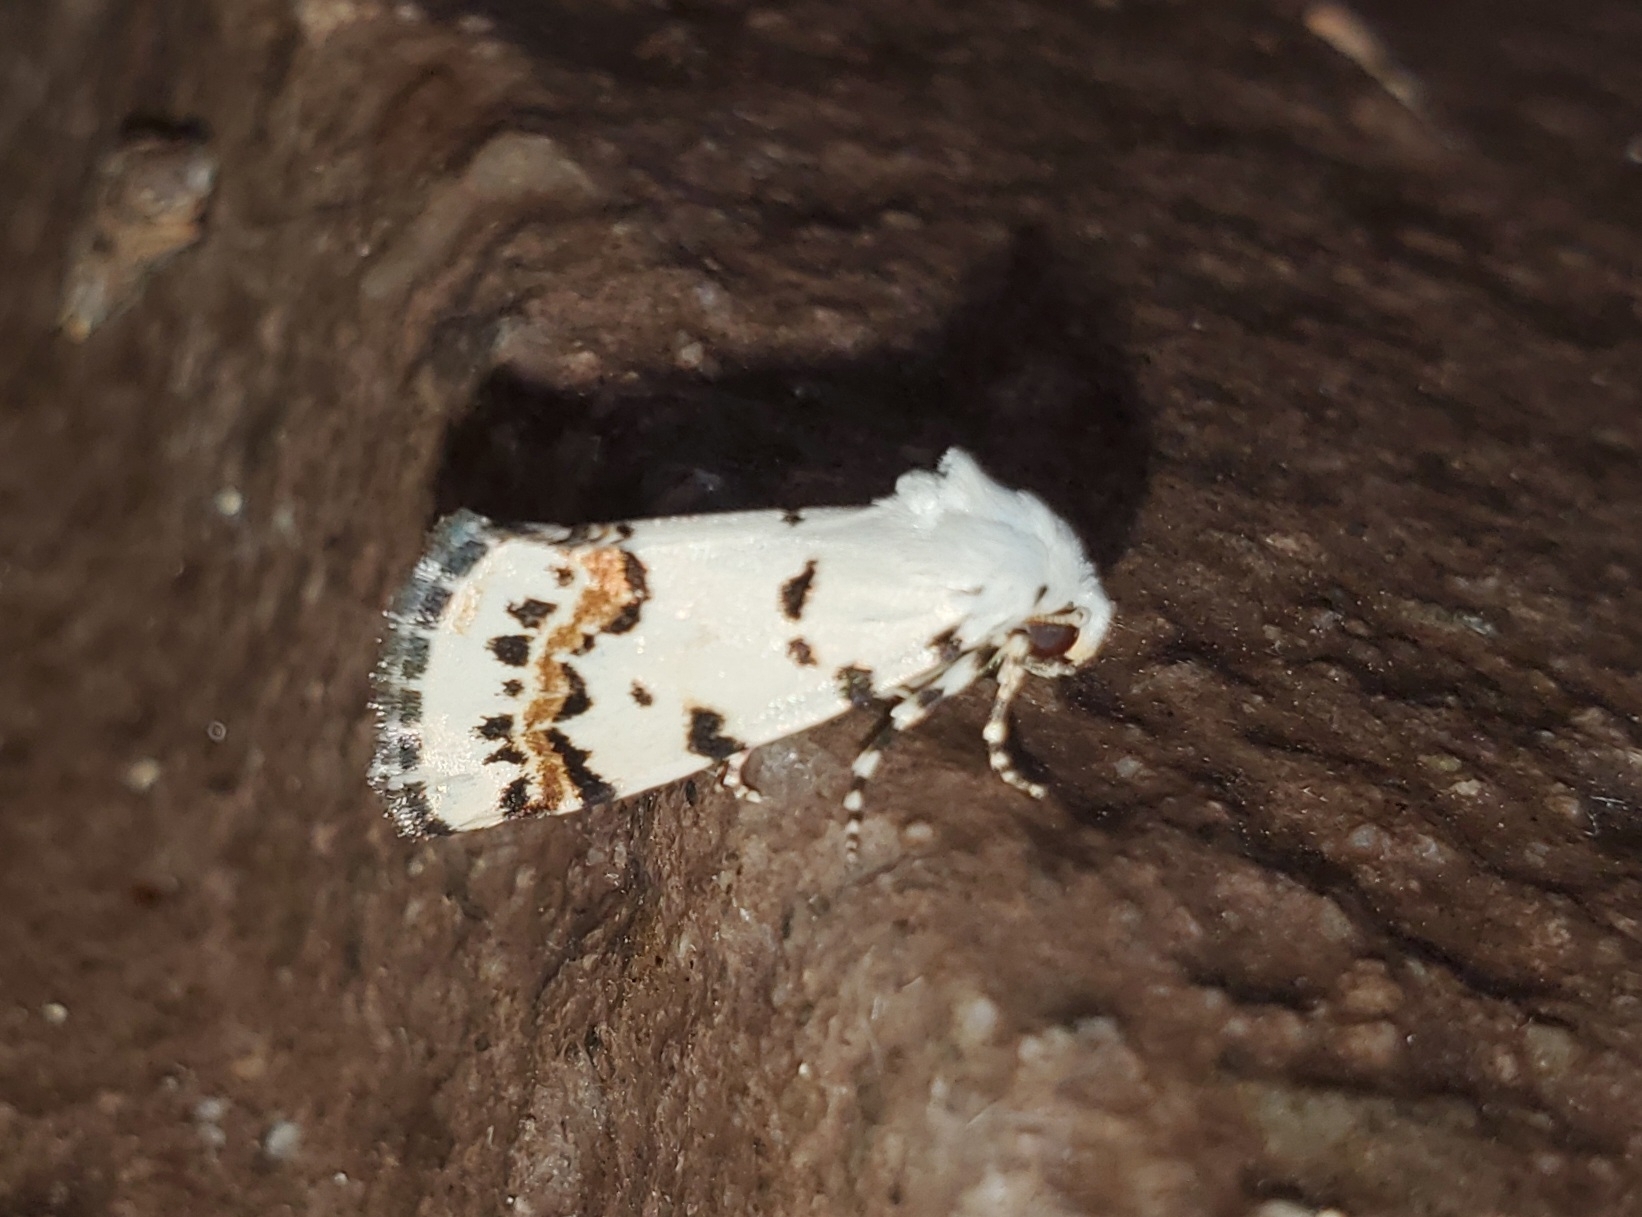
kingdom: Animalia
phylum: Arthropoda
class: Insecta
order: Lepidoptera
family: Noctuidae
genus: Grotella
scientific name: Grotella tricolor
